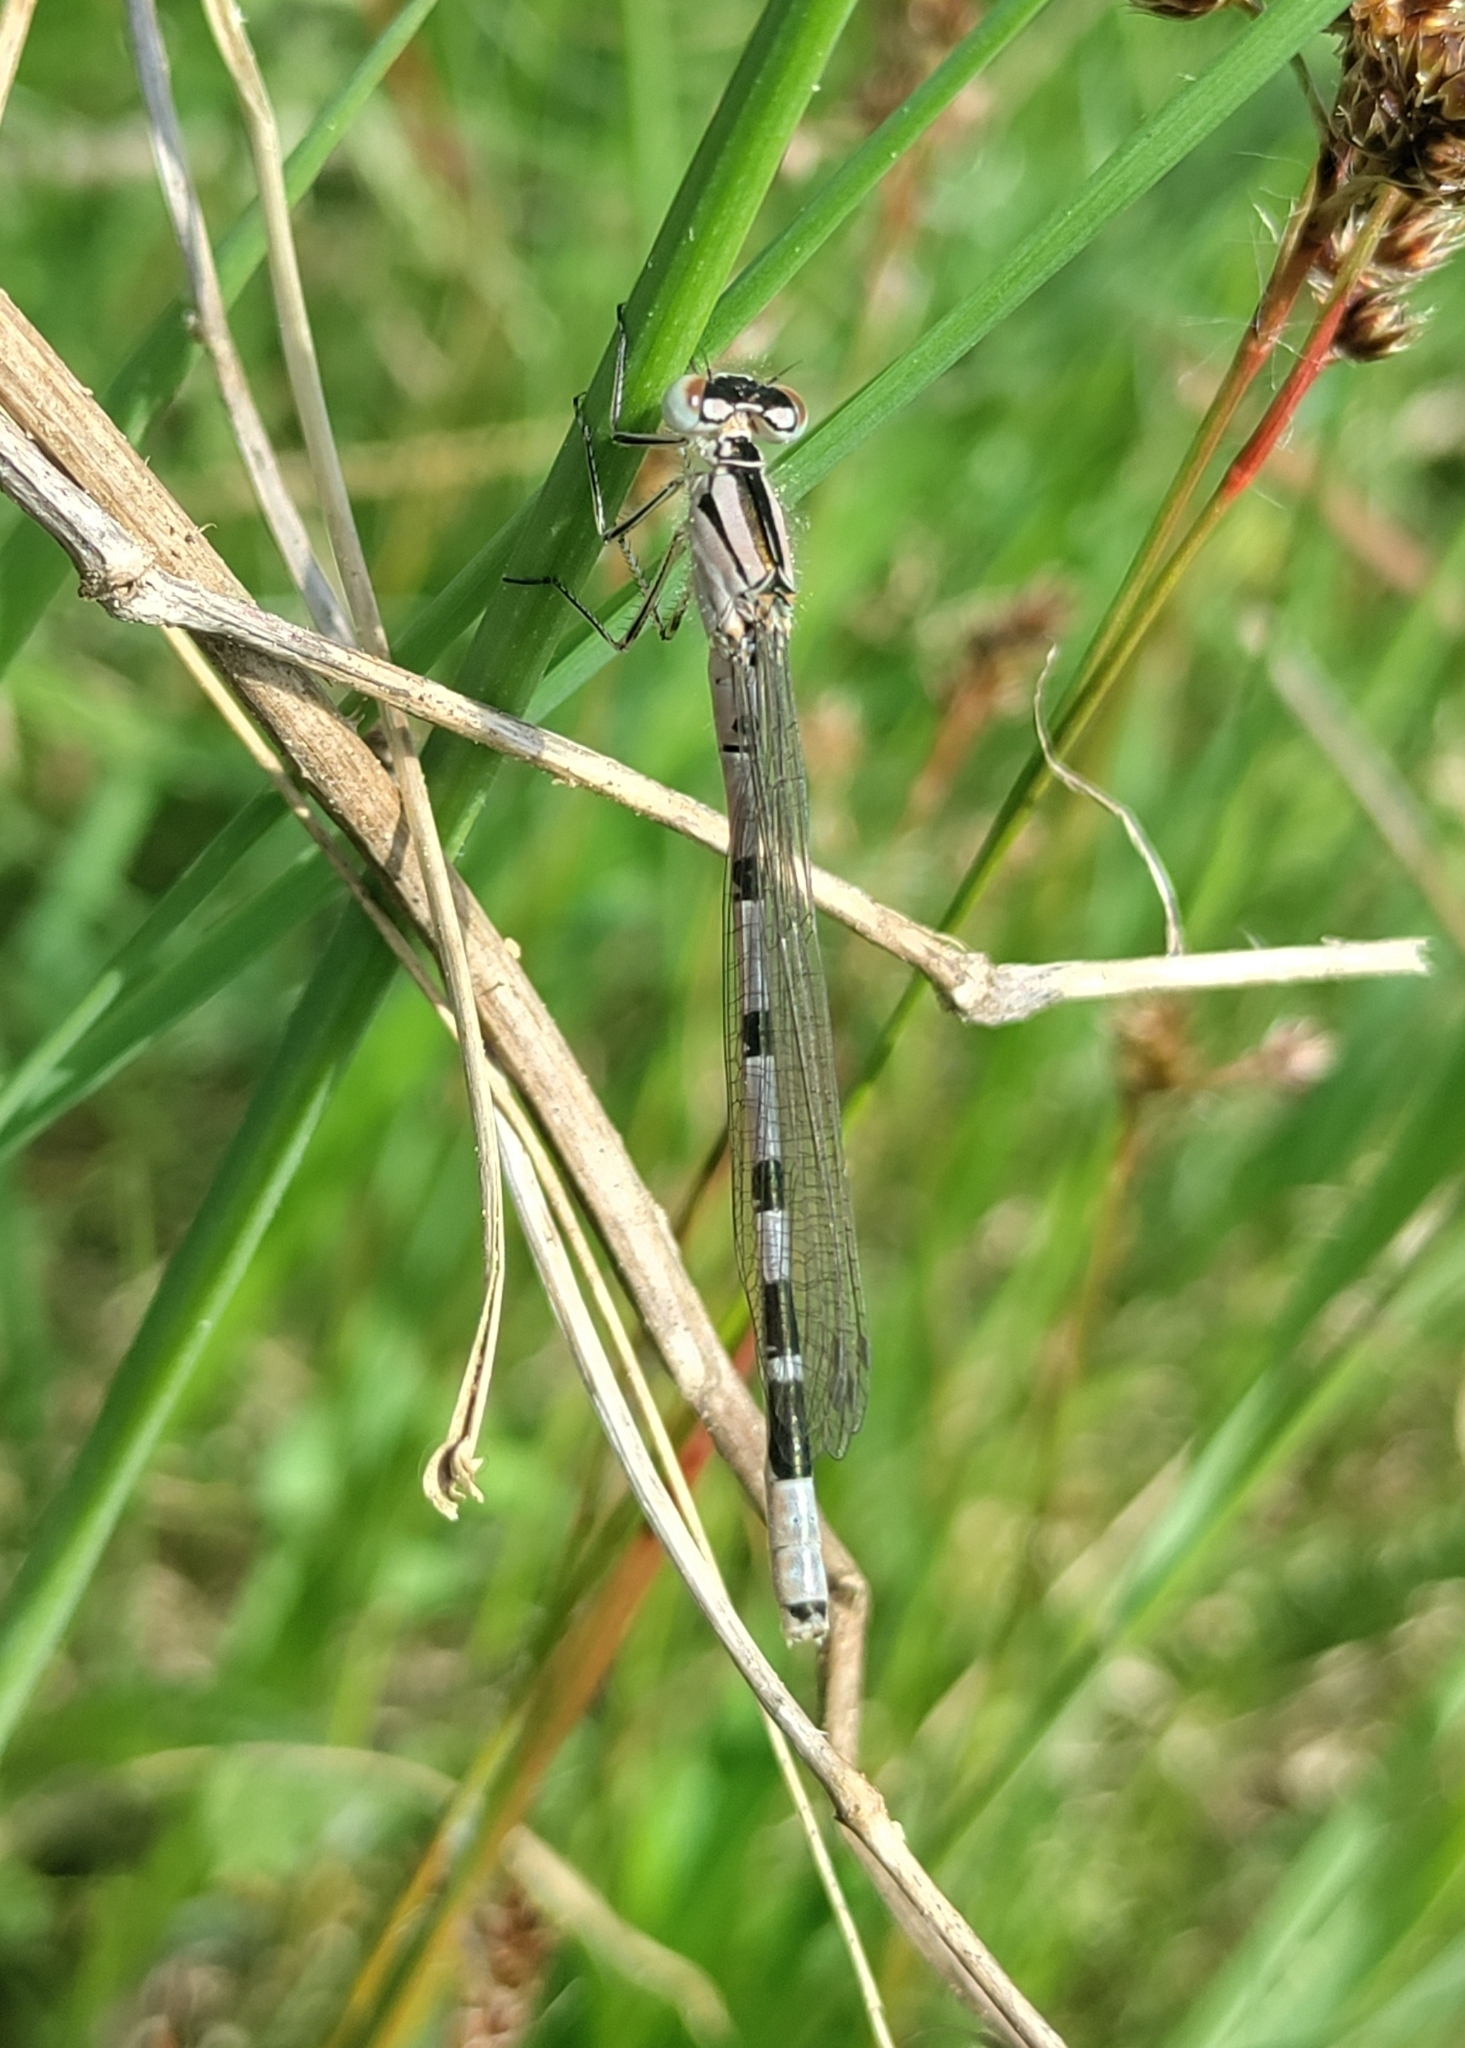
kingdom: Animalia
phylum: Arthropoda
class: Insecta
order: Odonata
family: Coenagrionidae
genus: Enallagma
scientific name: Enallagma cyathigerum
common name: Common blue damselfly
